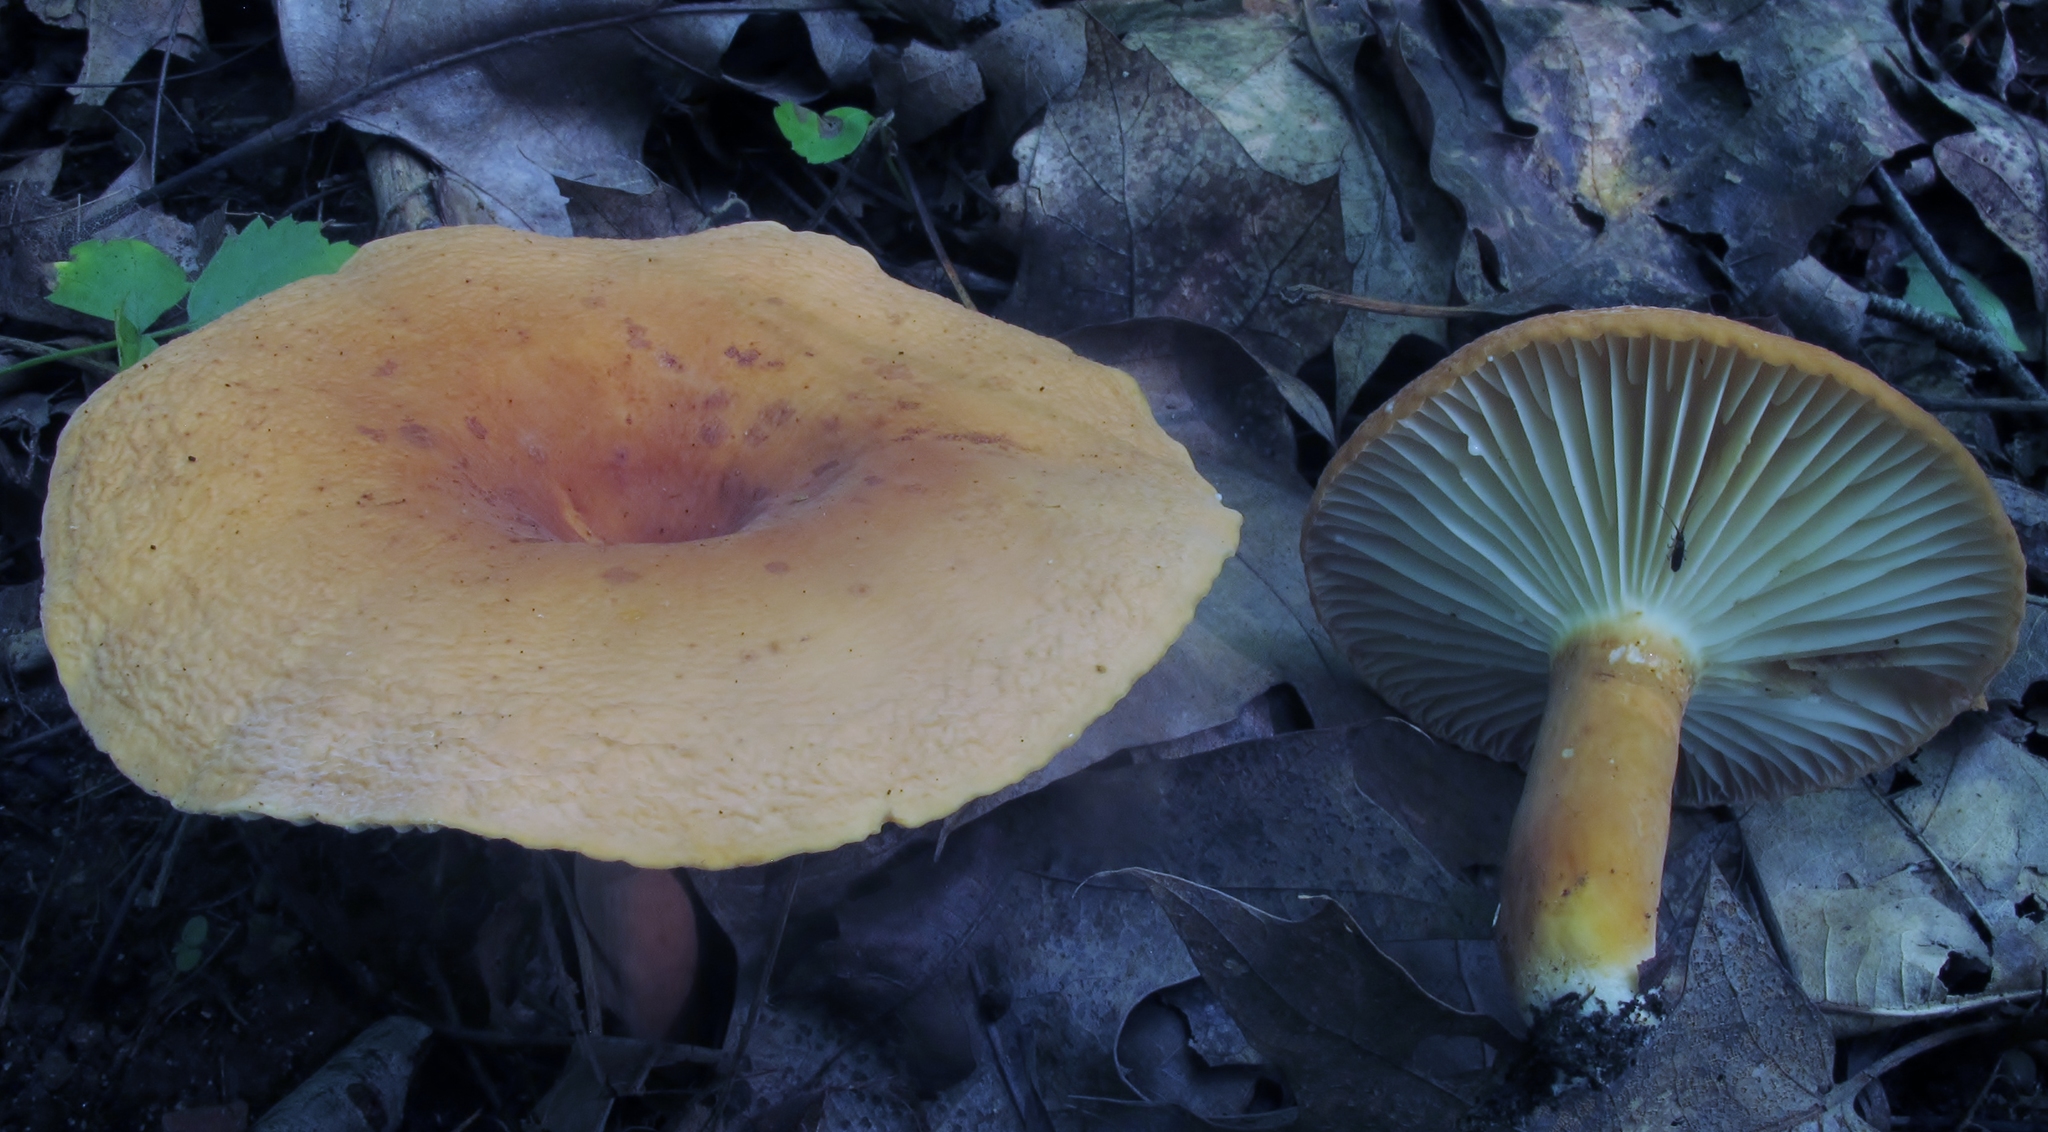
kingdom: Fungi
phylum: Basidiomycota
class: Agaricomycetes
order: Russulales
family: Russulaceae
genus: Lactarius
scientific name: Lactarius hygrophoroides
